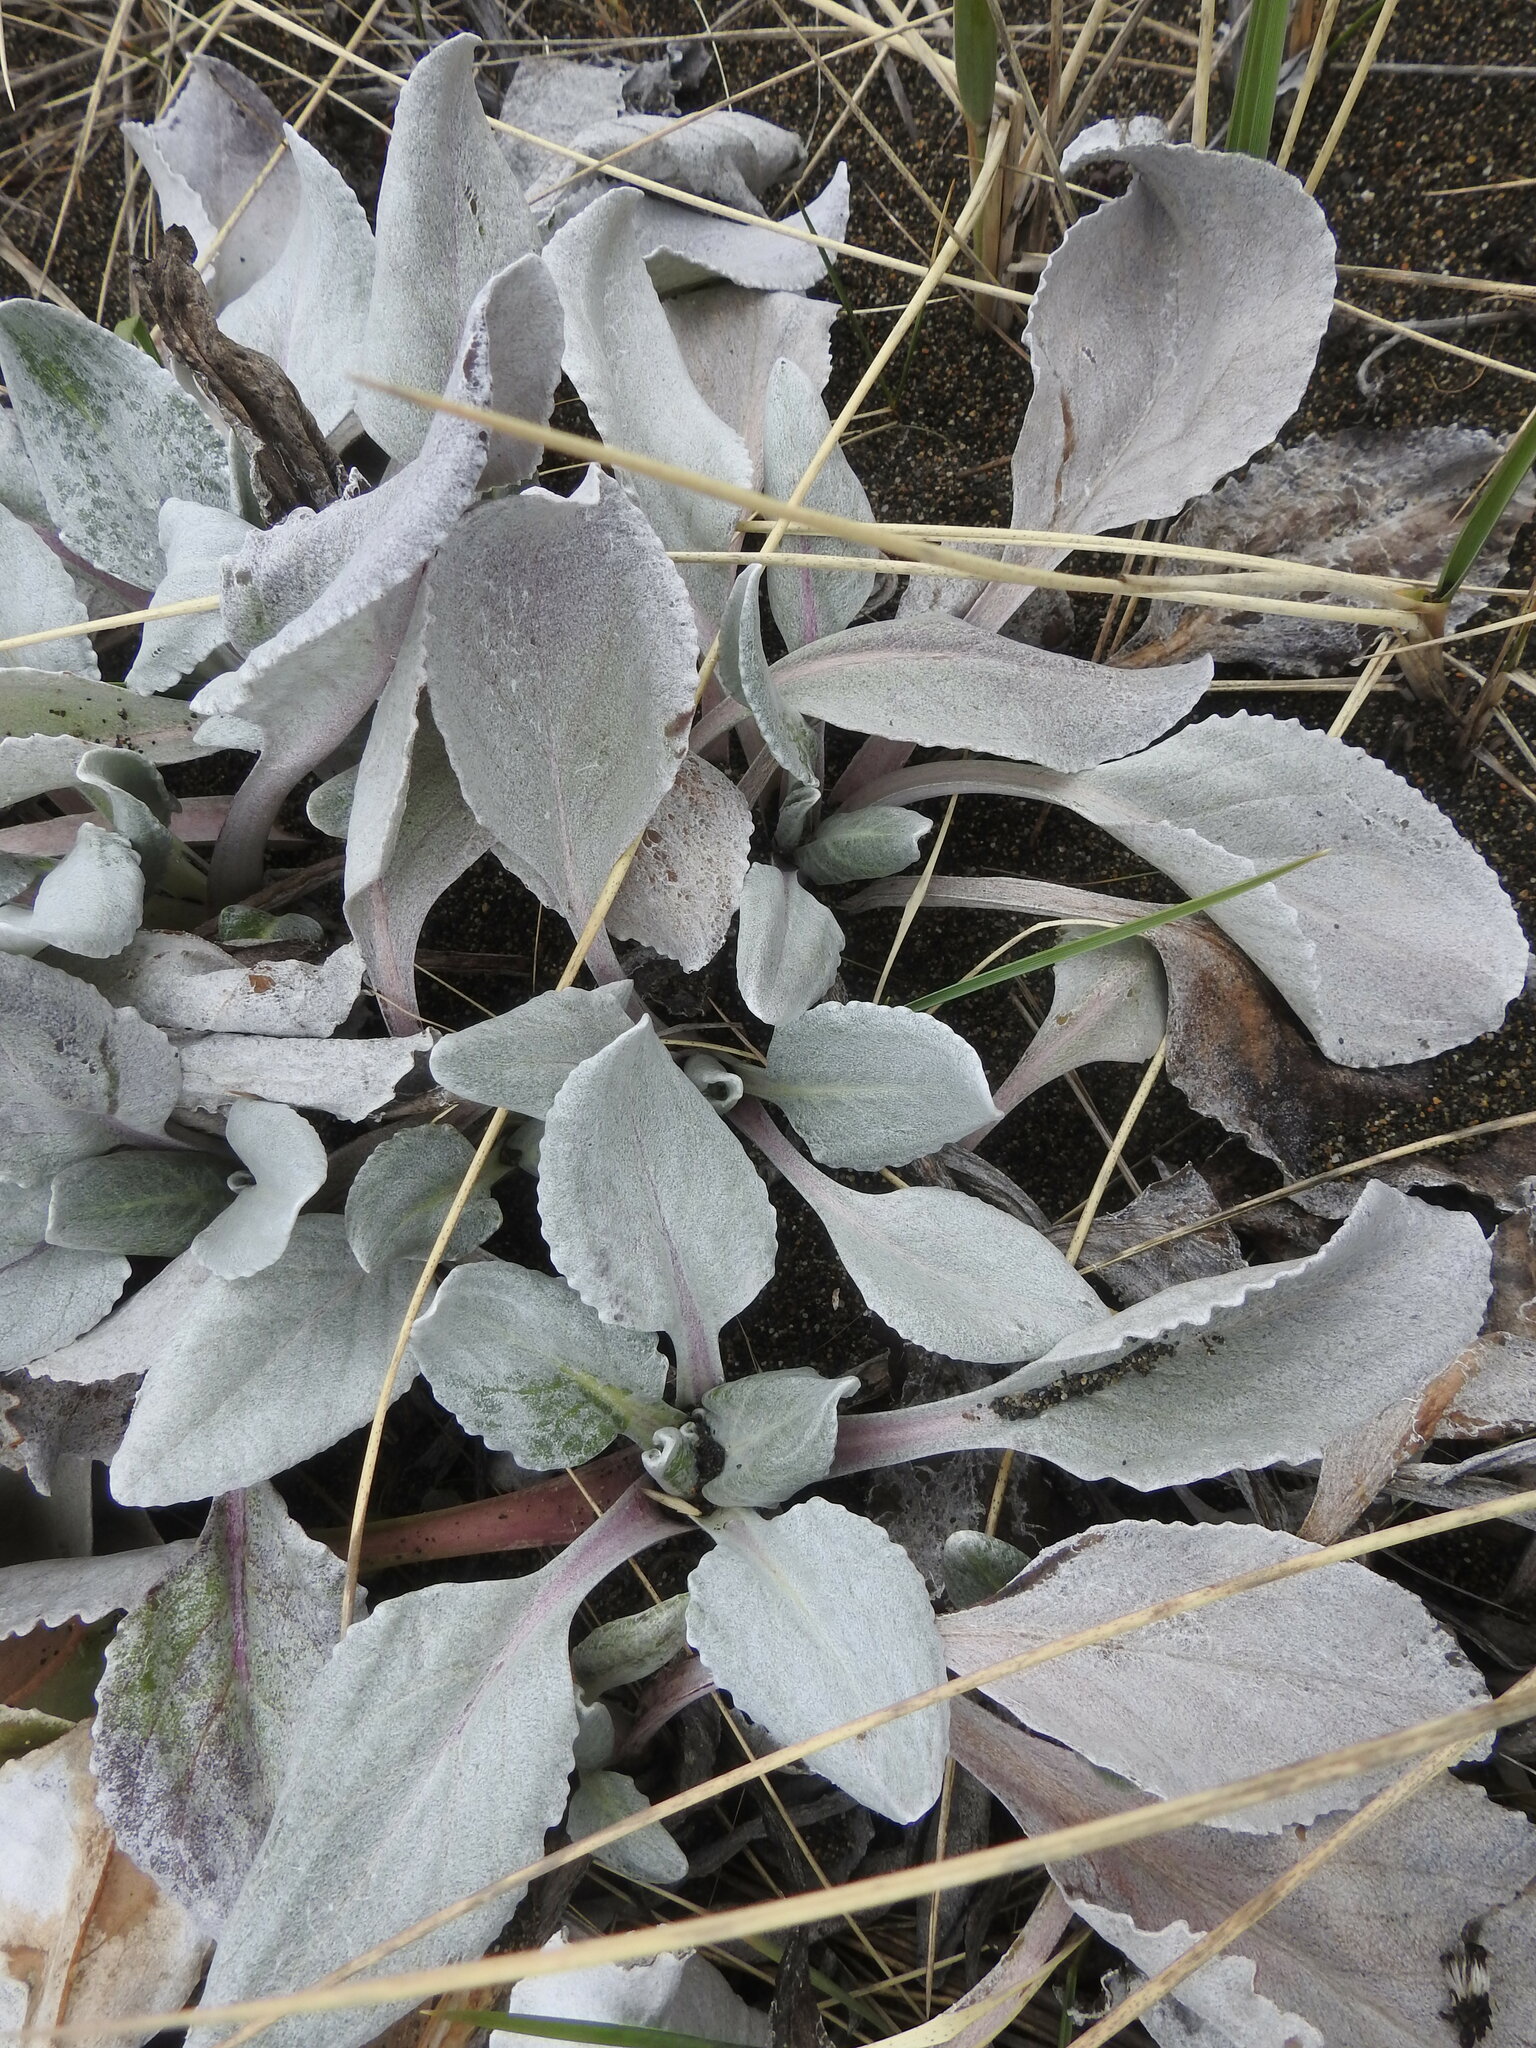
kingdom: Plantae
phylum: Tracheophyta
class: Magnoliopsida
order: Asterales
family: Asteraceae
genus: Senecio
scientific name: Senecio candidans
